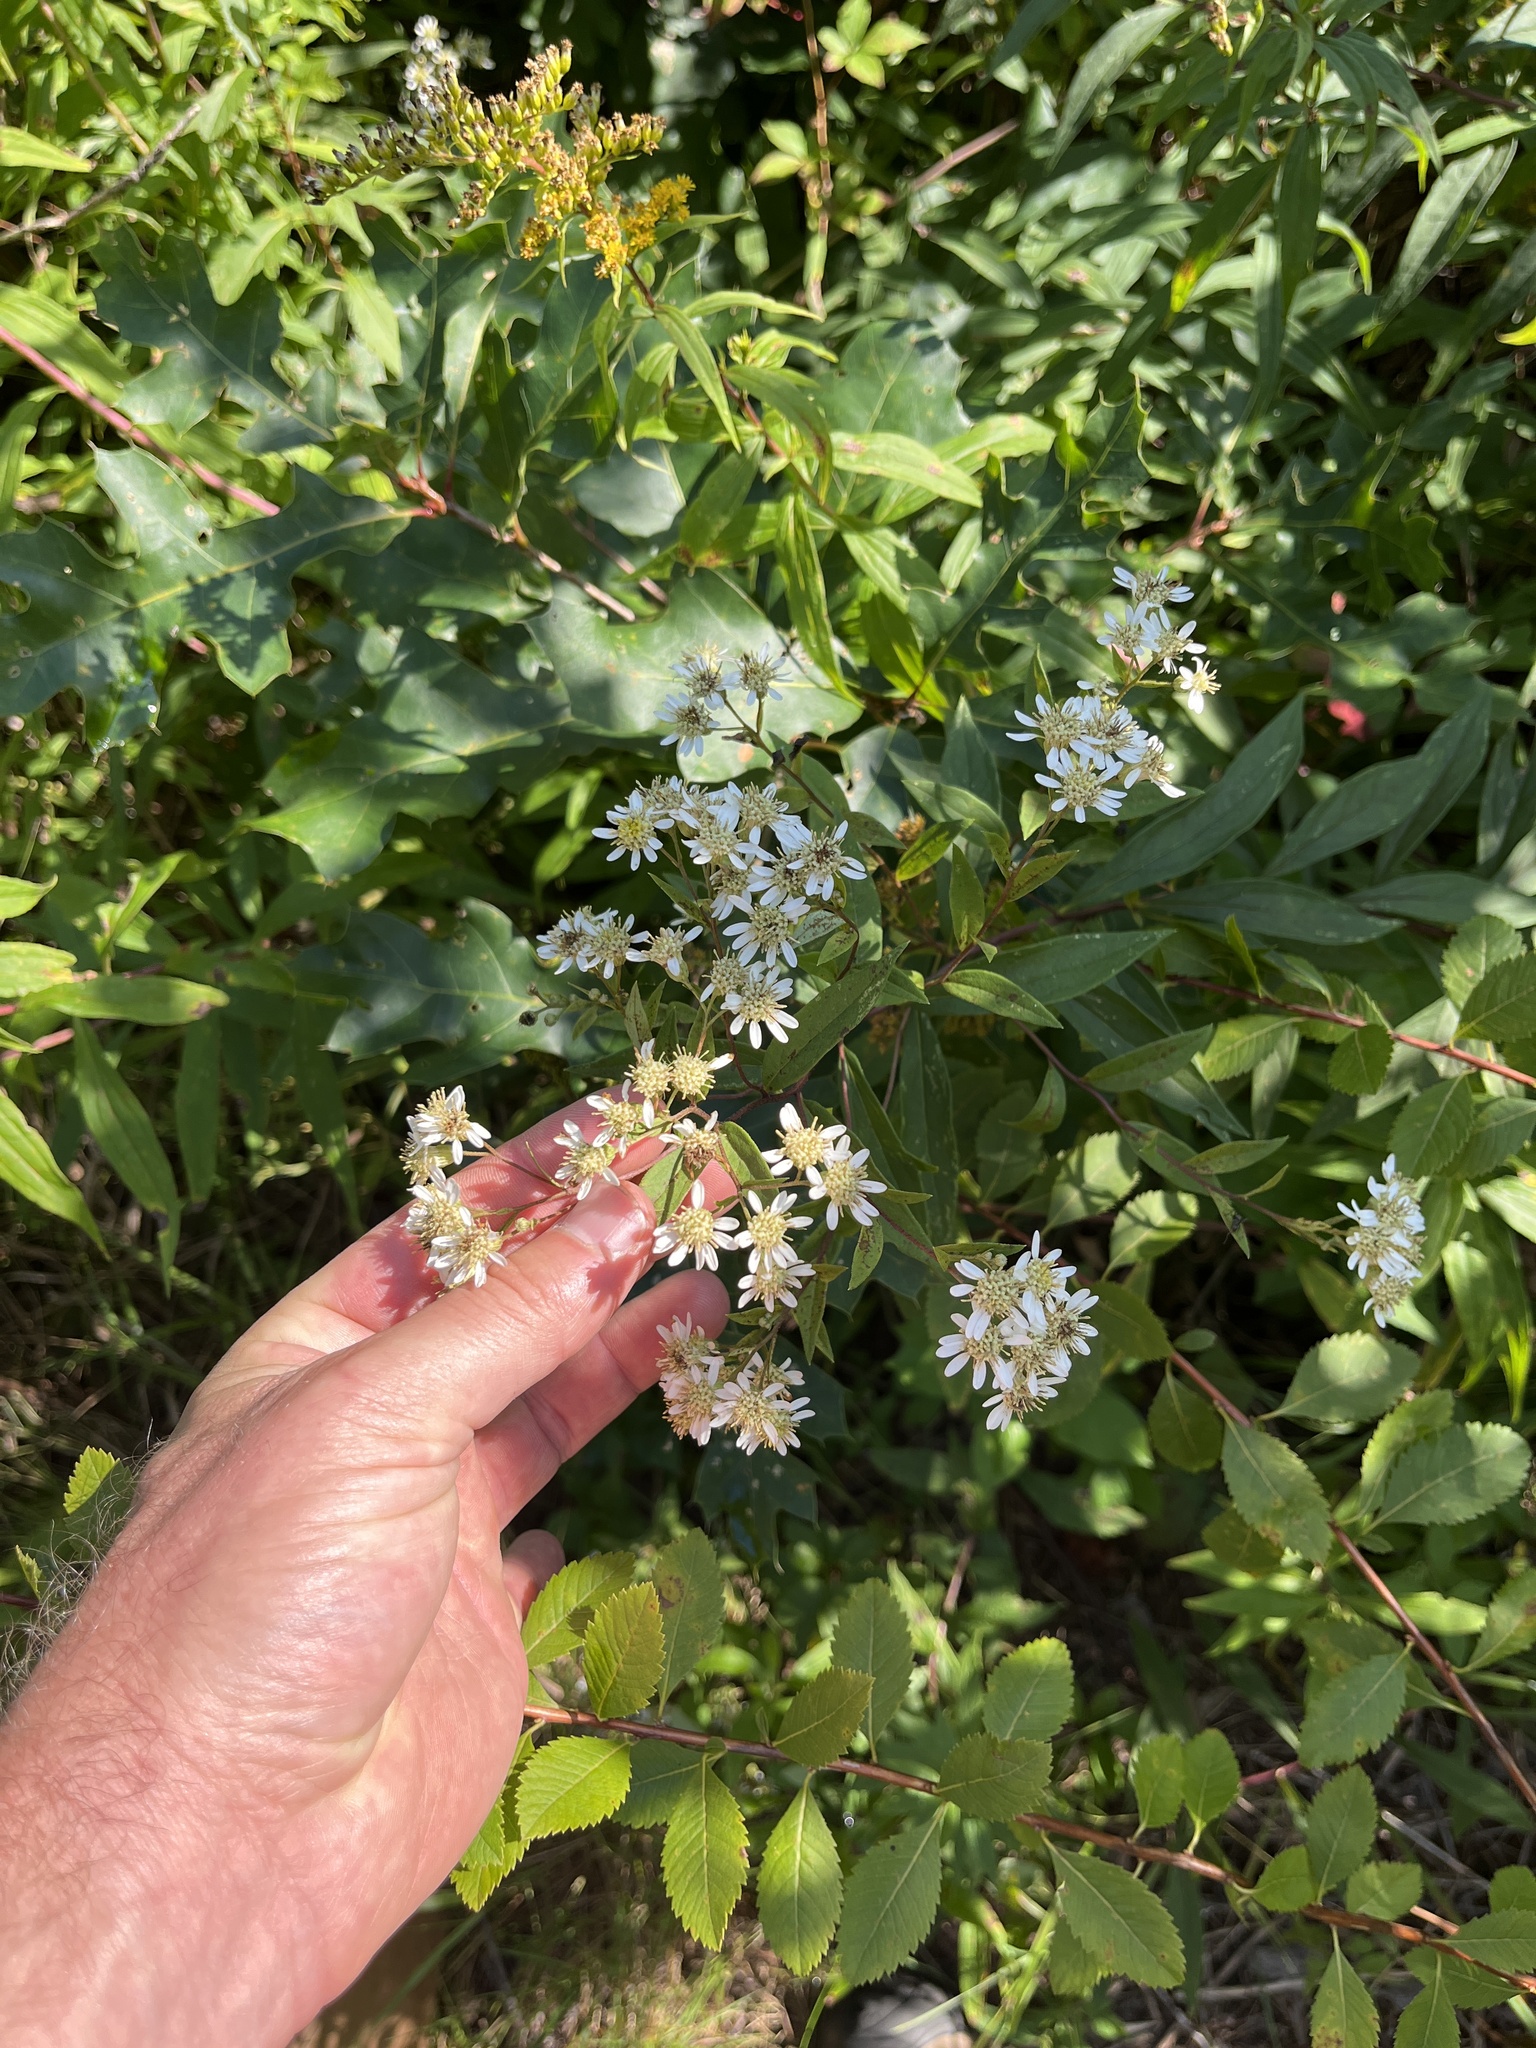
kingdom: Plantae
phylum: Tracheophyta
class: Magnoliopsida
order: Asterales
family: Asteraceae
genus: Doellingeria
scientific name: Doellingeria umbellata
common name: Flat-top white aster
